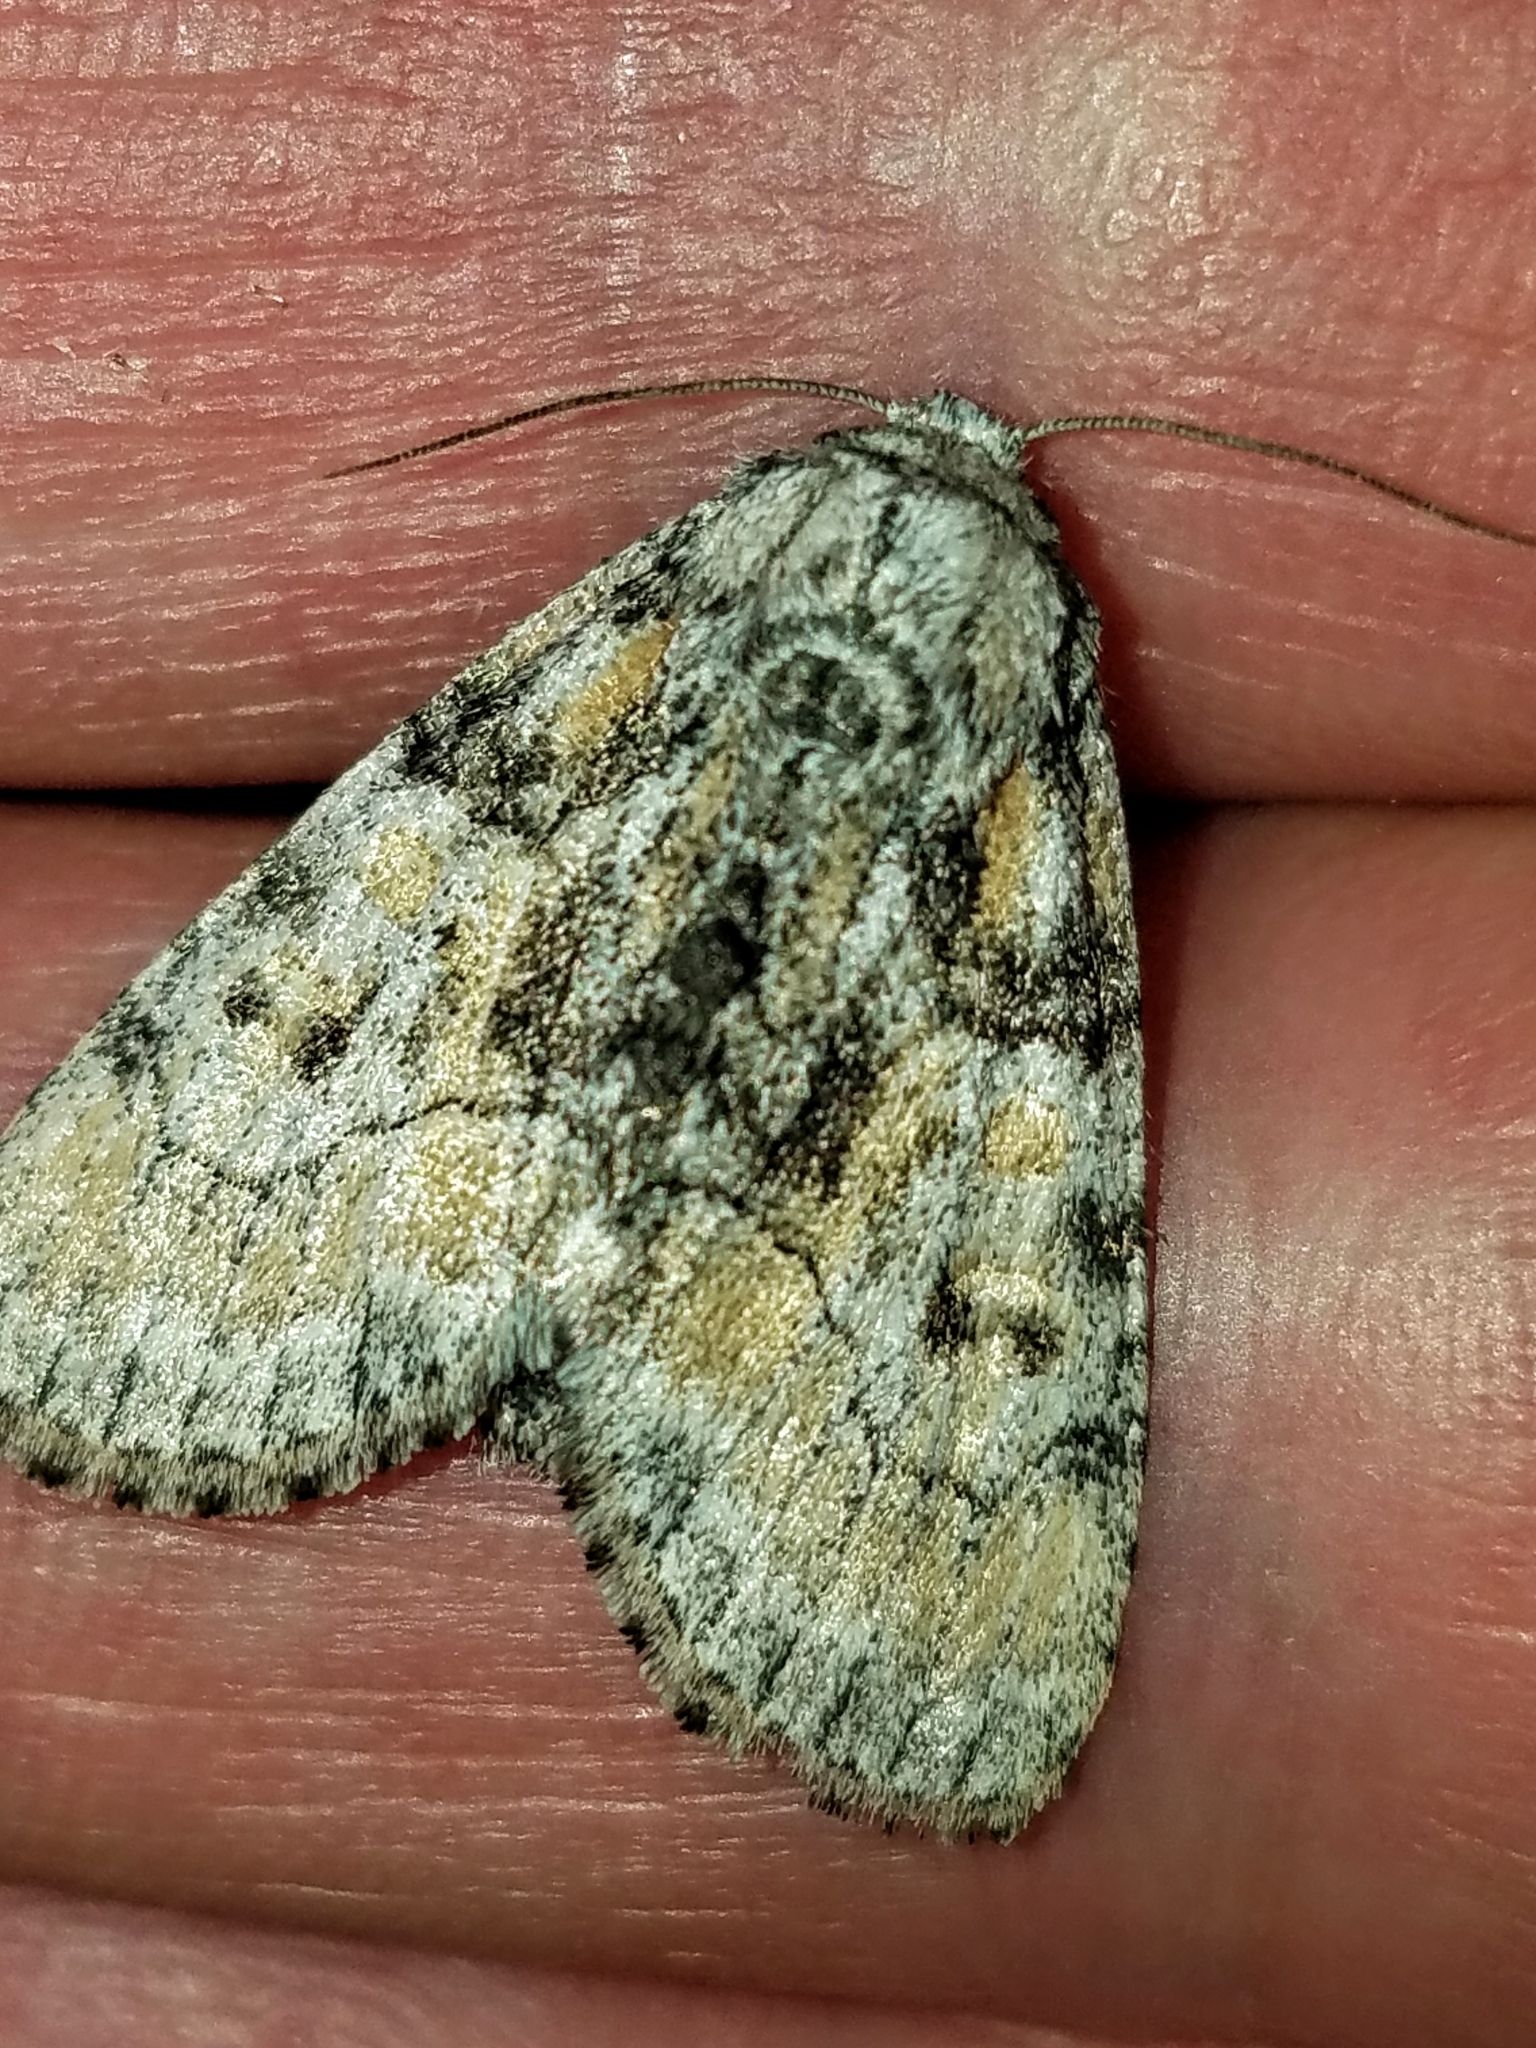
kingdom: Animalia
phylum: Arthropoda
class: Insecta
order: Lepidoptera
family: Noctuidae
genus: Raphia
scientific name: Raphia frater
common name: Brother
